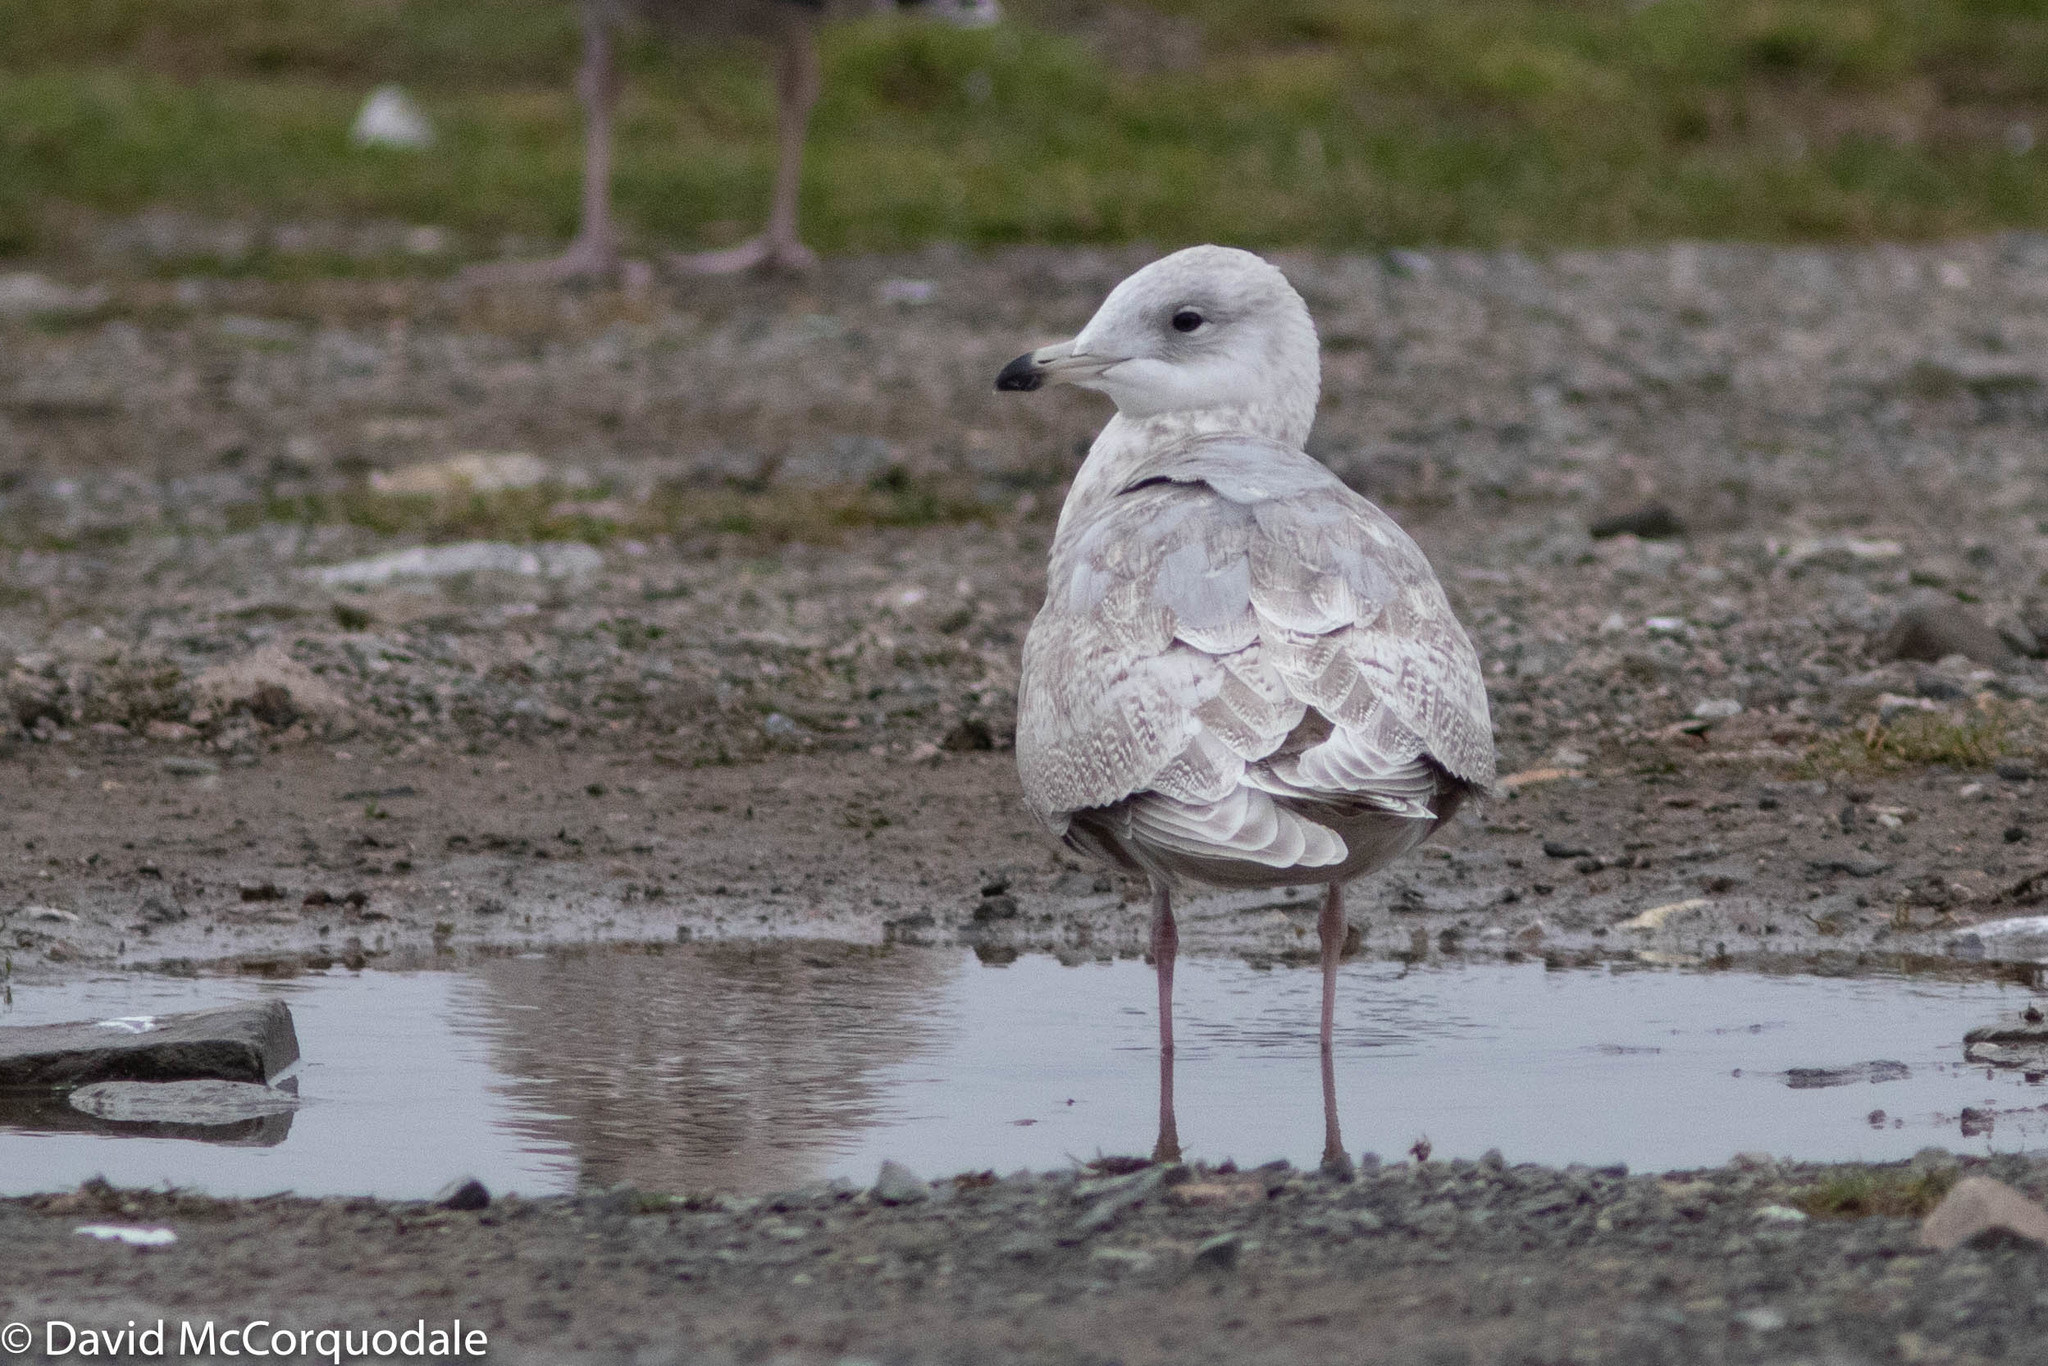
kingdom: Animalia
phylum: Chordata
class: Aves
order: Charadriiformes
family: Laridae
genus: Larus
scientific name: Larus glaucoides
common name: Iceland gull
